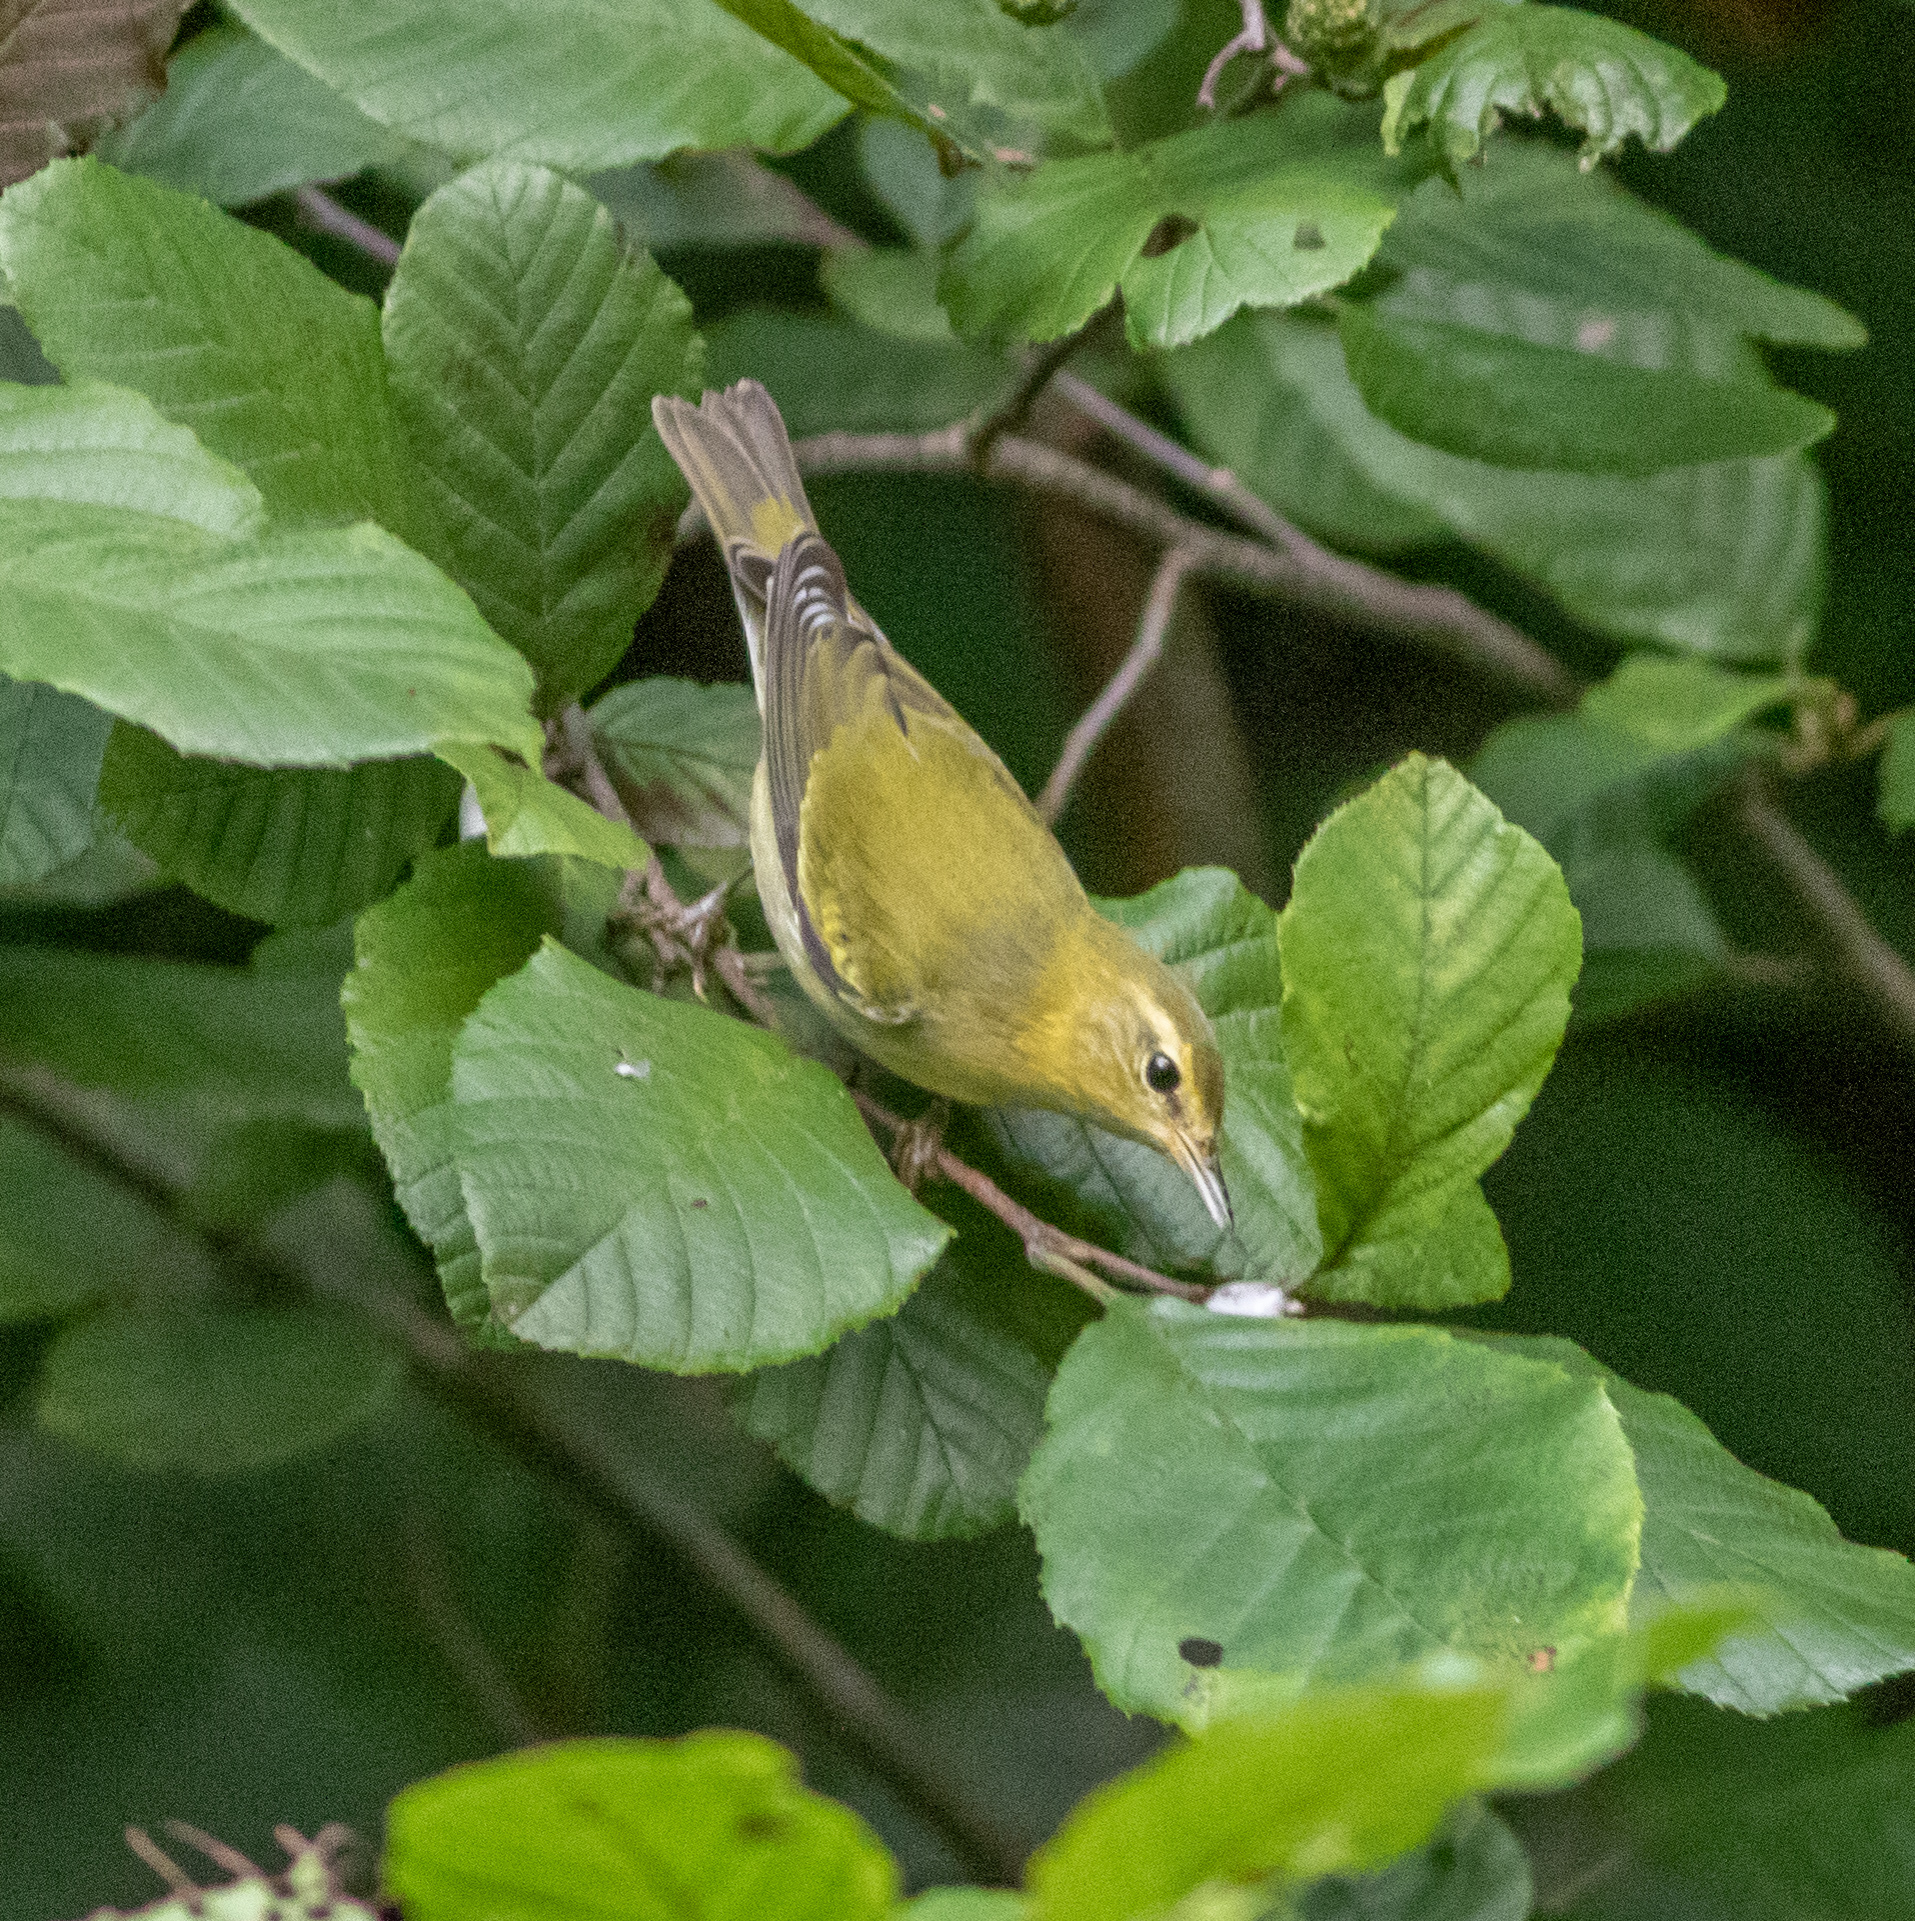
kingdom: Animalia
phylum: Chordata
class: Aves
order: Passeriformes
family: Parulidae
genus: Leiothlypis
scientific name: Leiothlypis peregrina
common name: Tennessee warbler
